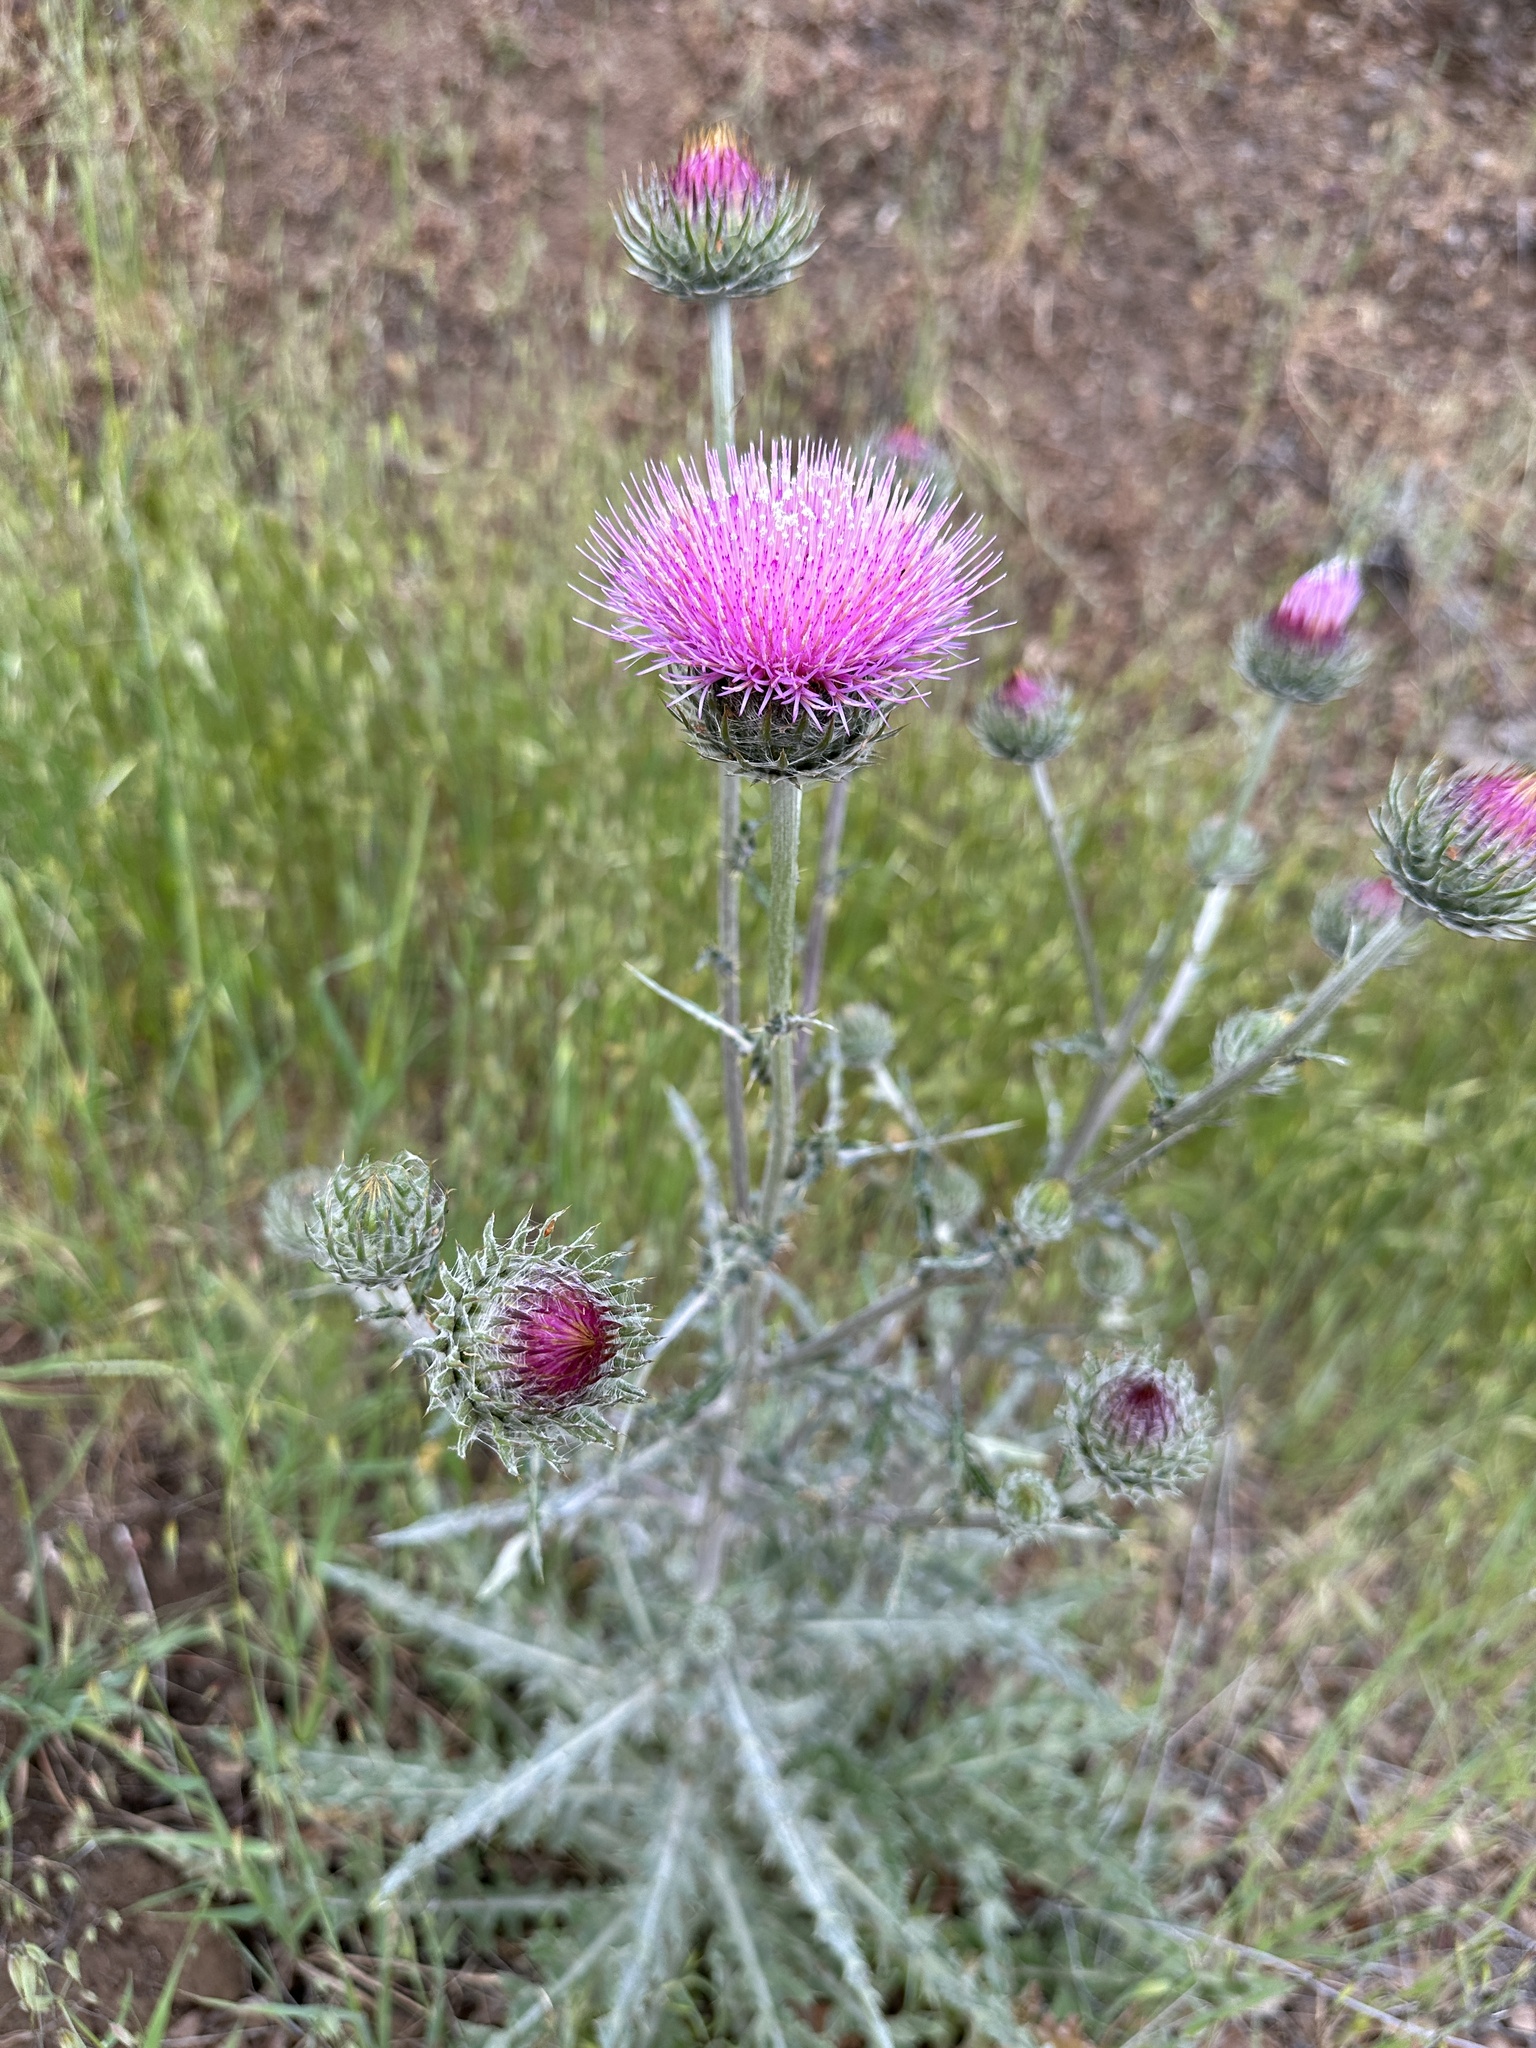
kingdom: Plantae
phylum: Tracheophyta
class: Magnoliopsida
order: Asterales
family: Asteraceae
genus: Cirsium
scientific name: Cirsium occidentale
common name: Western thistle
